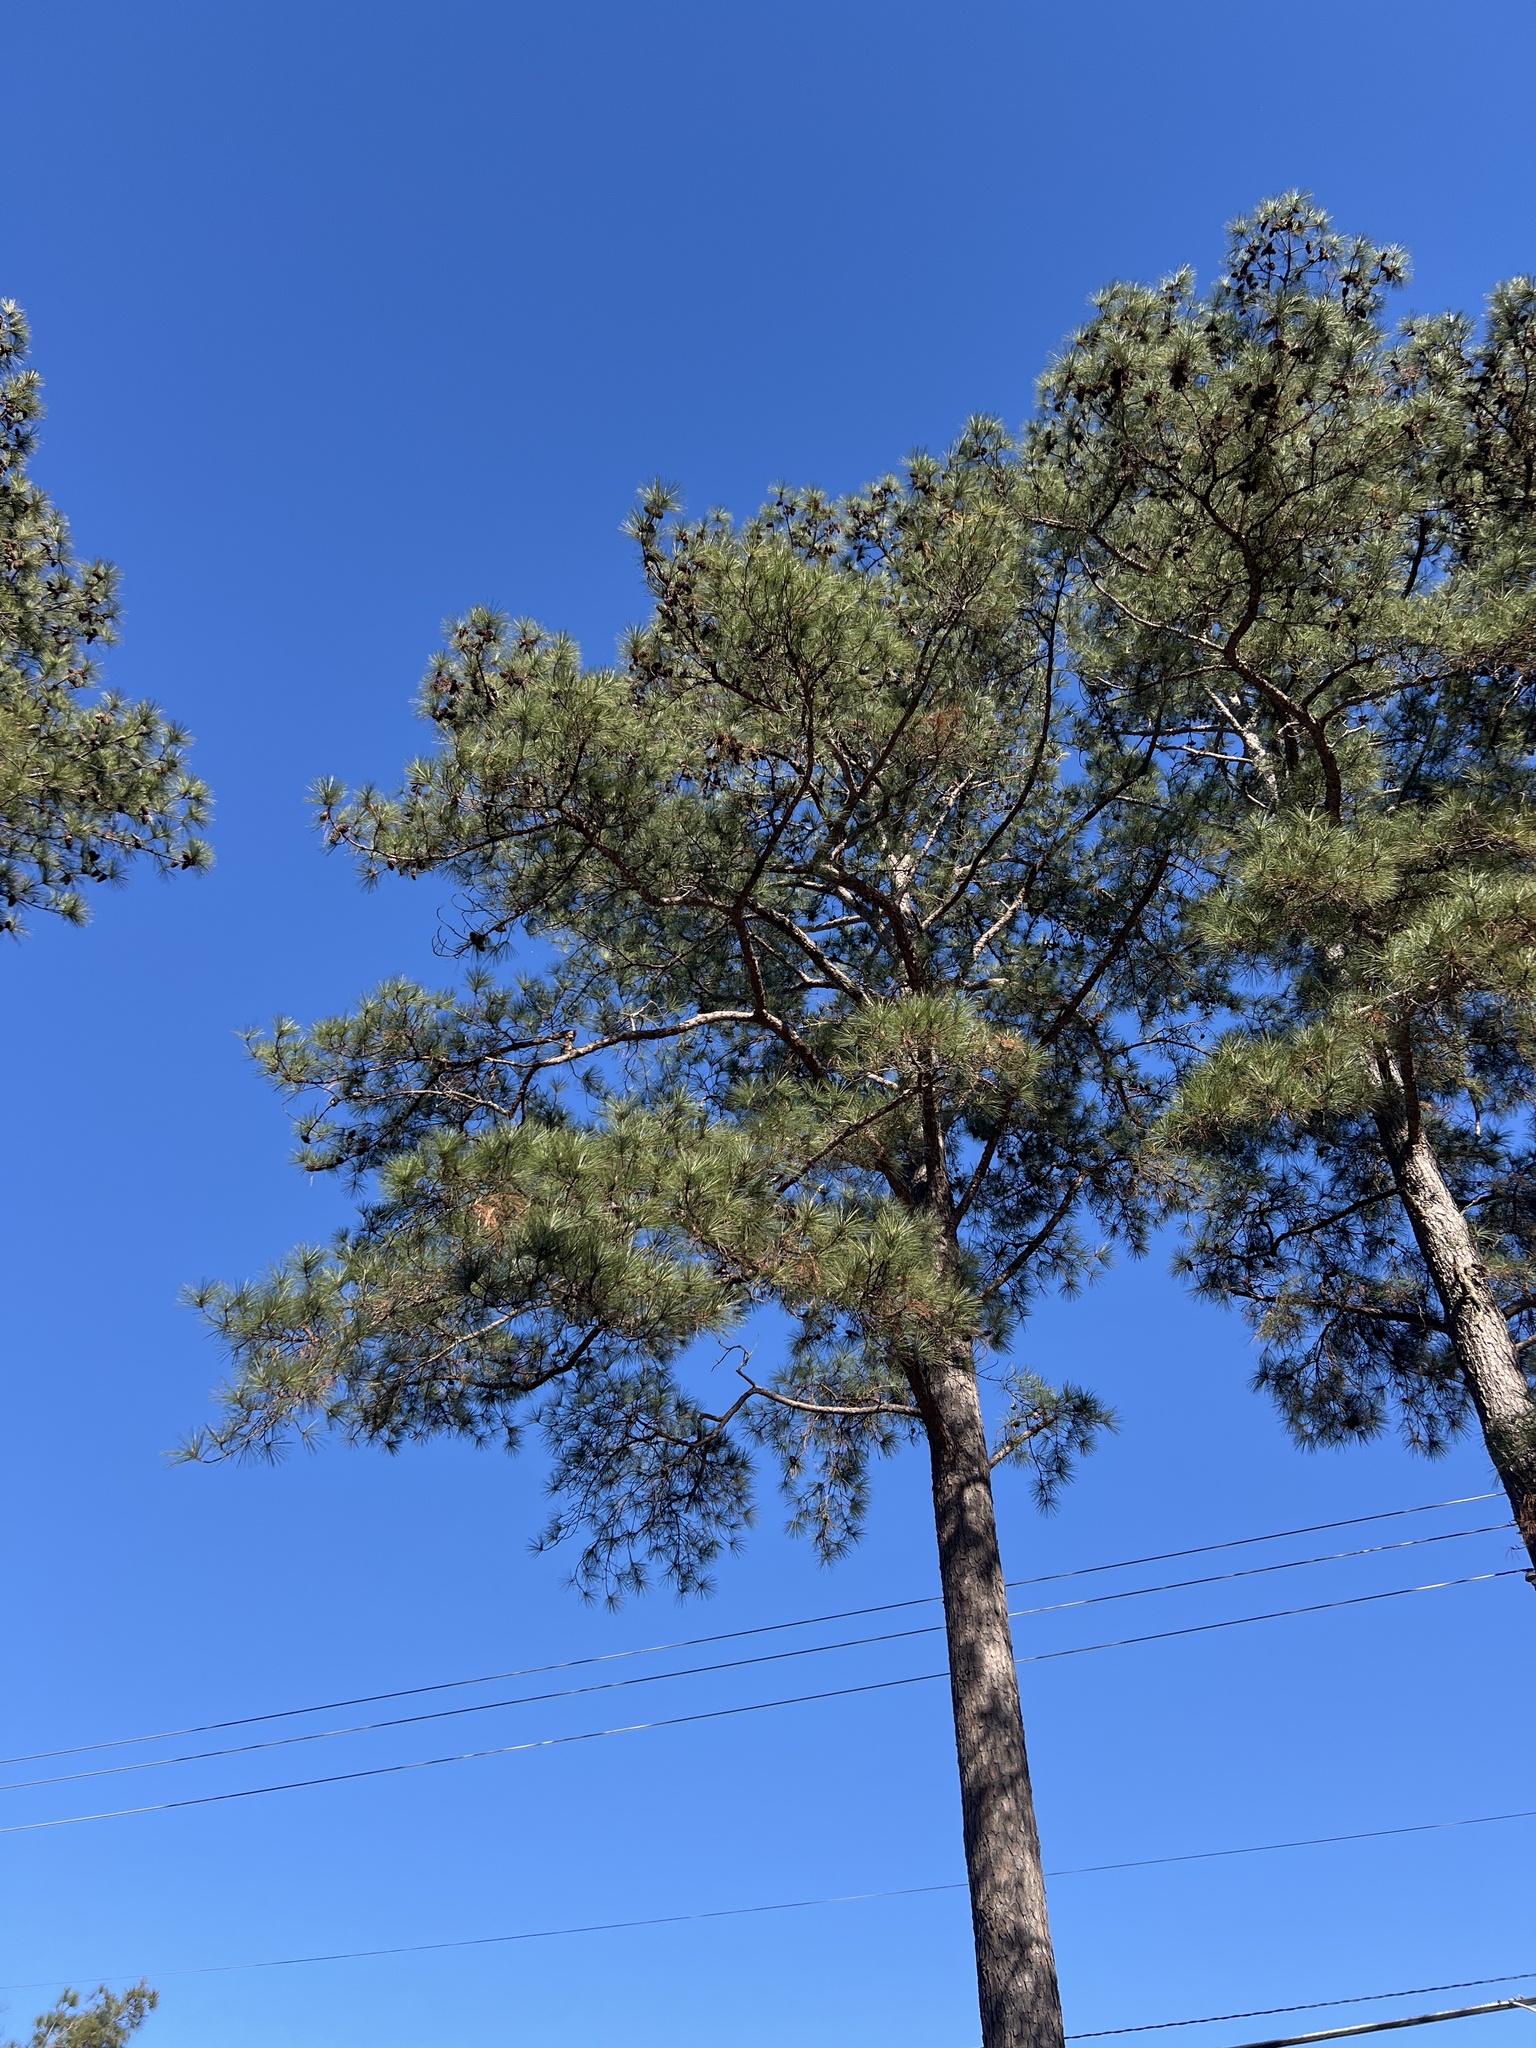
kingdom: Plantae
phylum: Tracheophyta
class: Pinopsida
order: Pinales
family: Pinaceae
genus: Pinus
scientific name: Pinus taeda
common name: Loblolly pine
